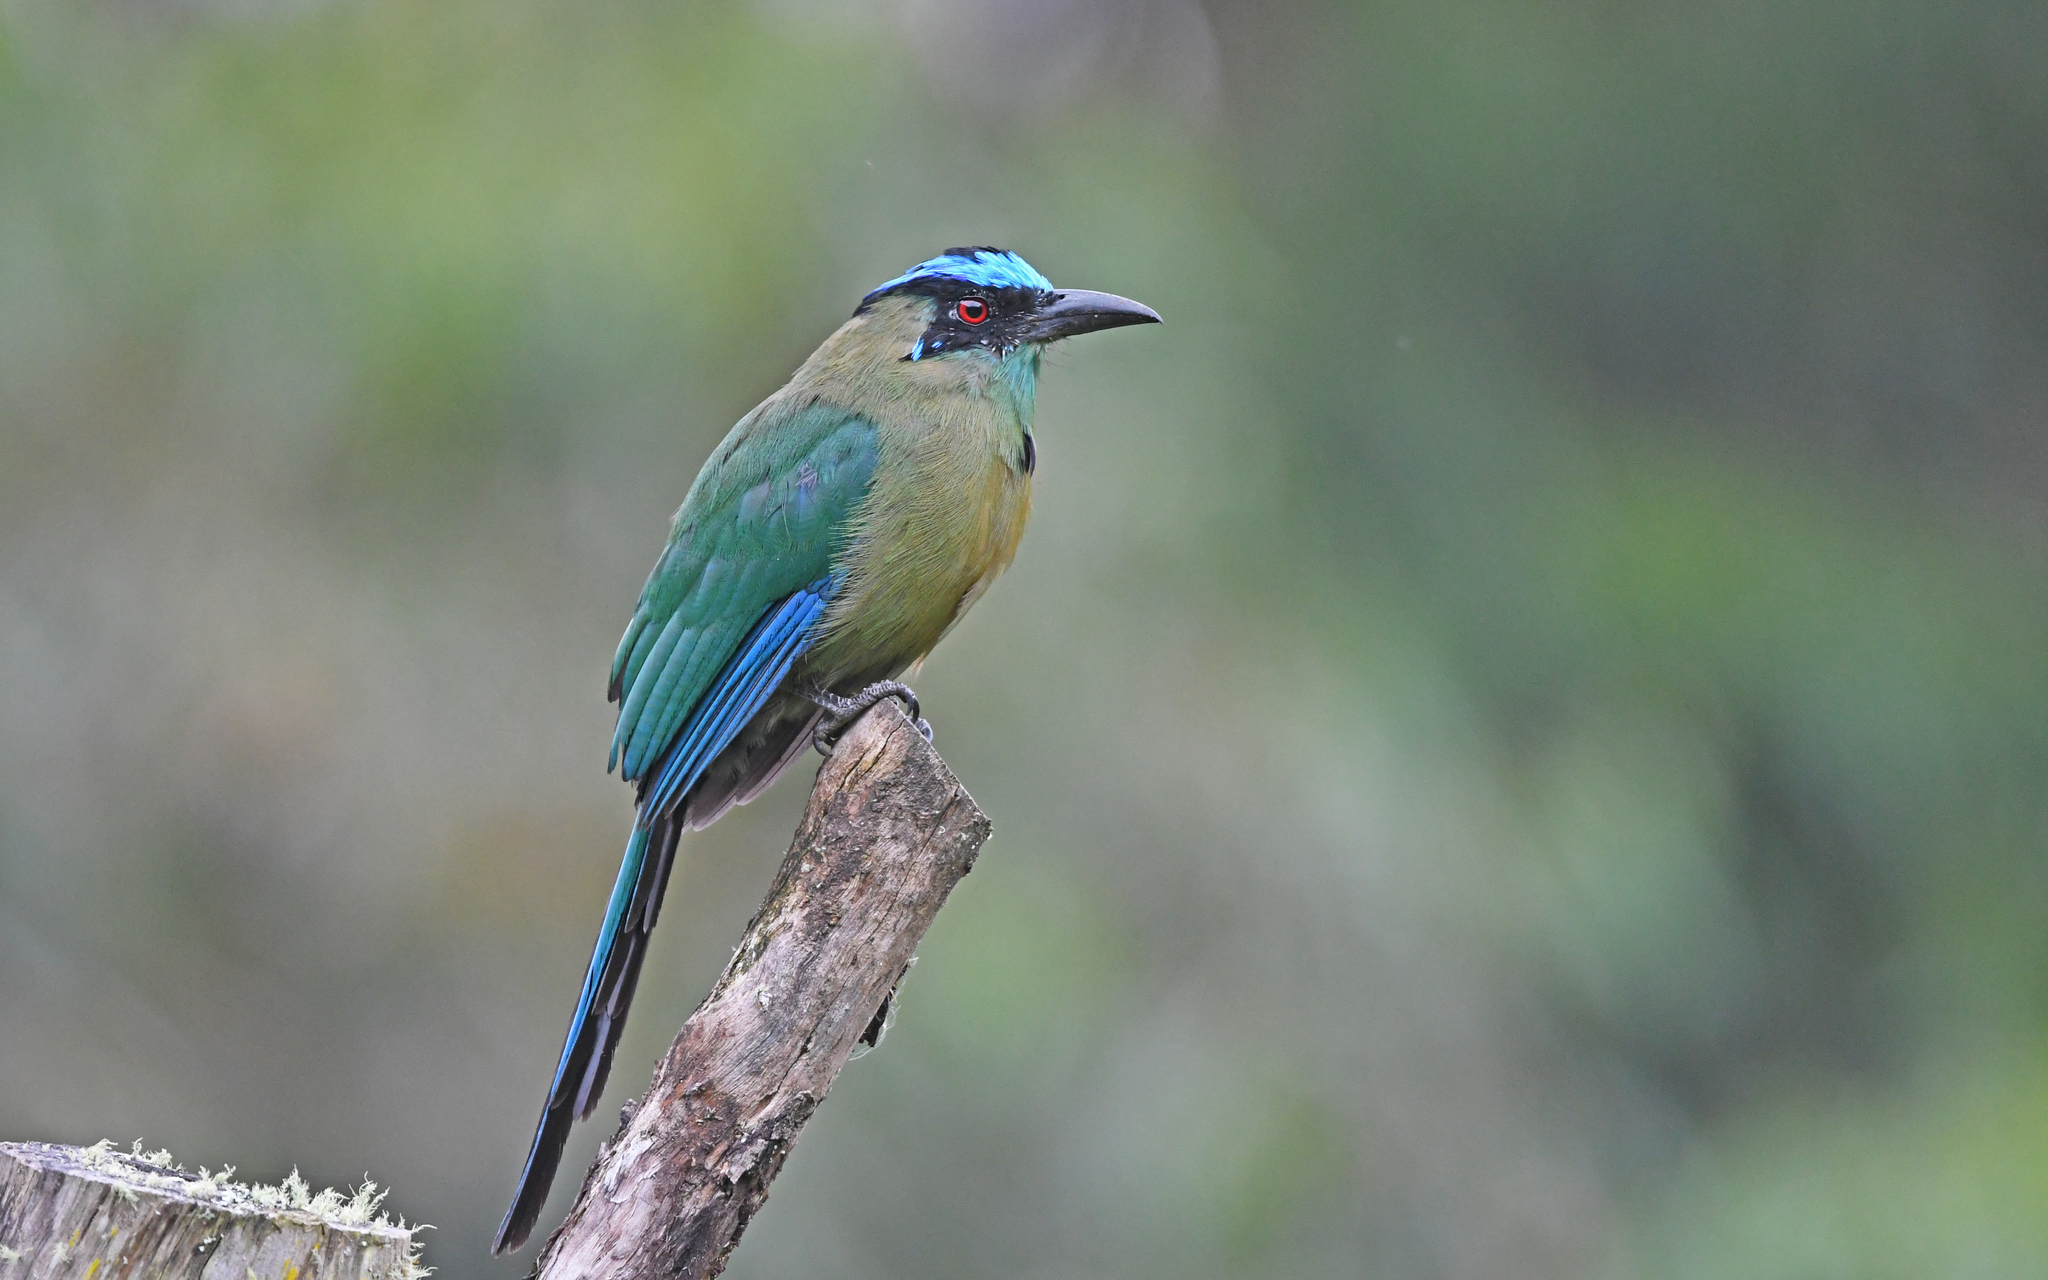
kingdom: Animalia
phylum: Chordata
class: Aves
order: Coraciiformes
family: Momotidae
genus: Momotus
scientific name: Momotus aequatorialis
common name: Andean motmot
